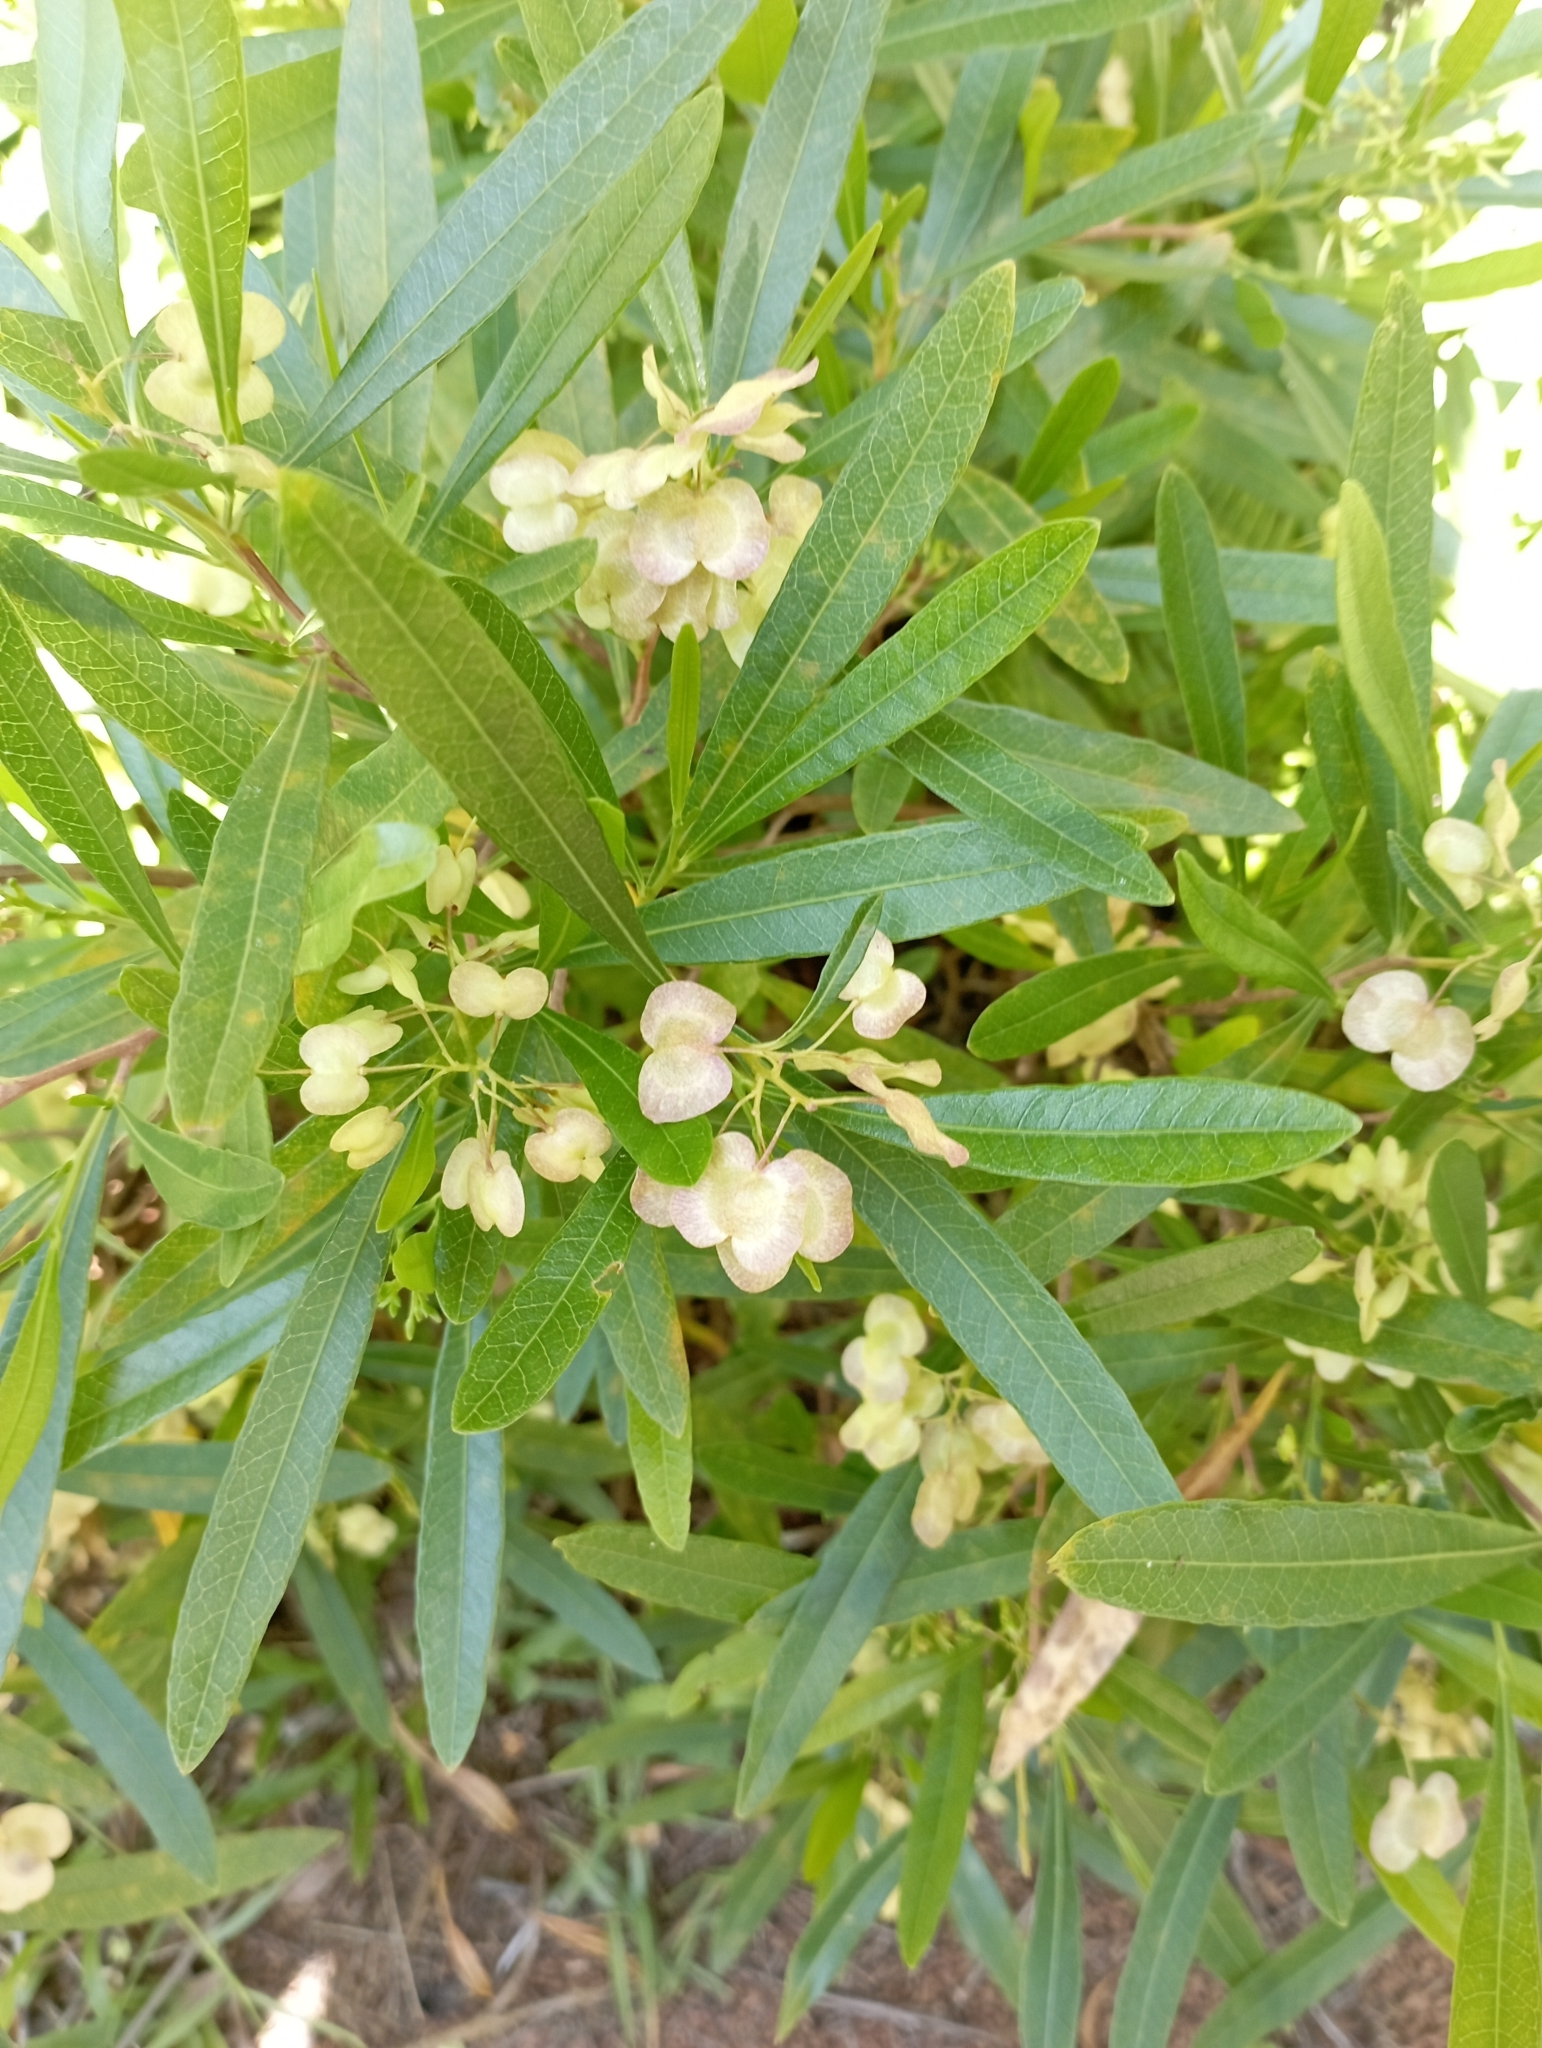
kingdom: Plantae
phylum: Tracheophyta
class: Magnoliopsida
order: Sapindales
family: Sapindaceae
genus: Dodonaea
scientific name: Dodonaea viscosa
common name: Hopbush
